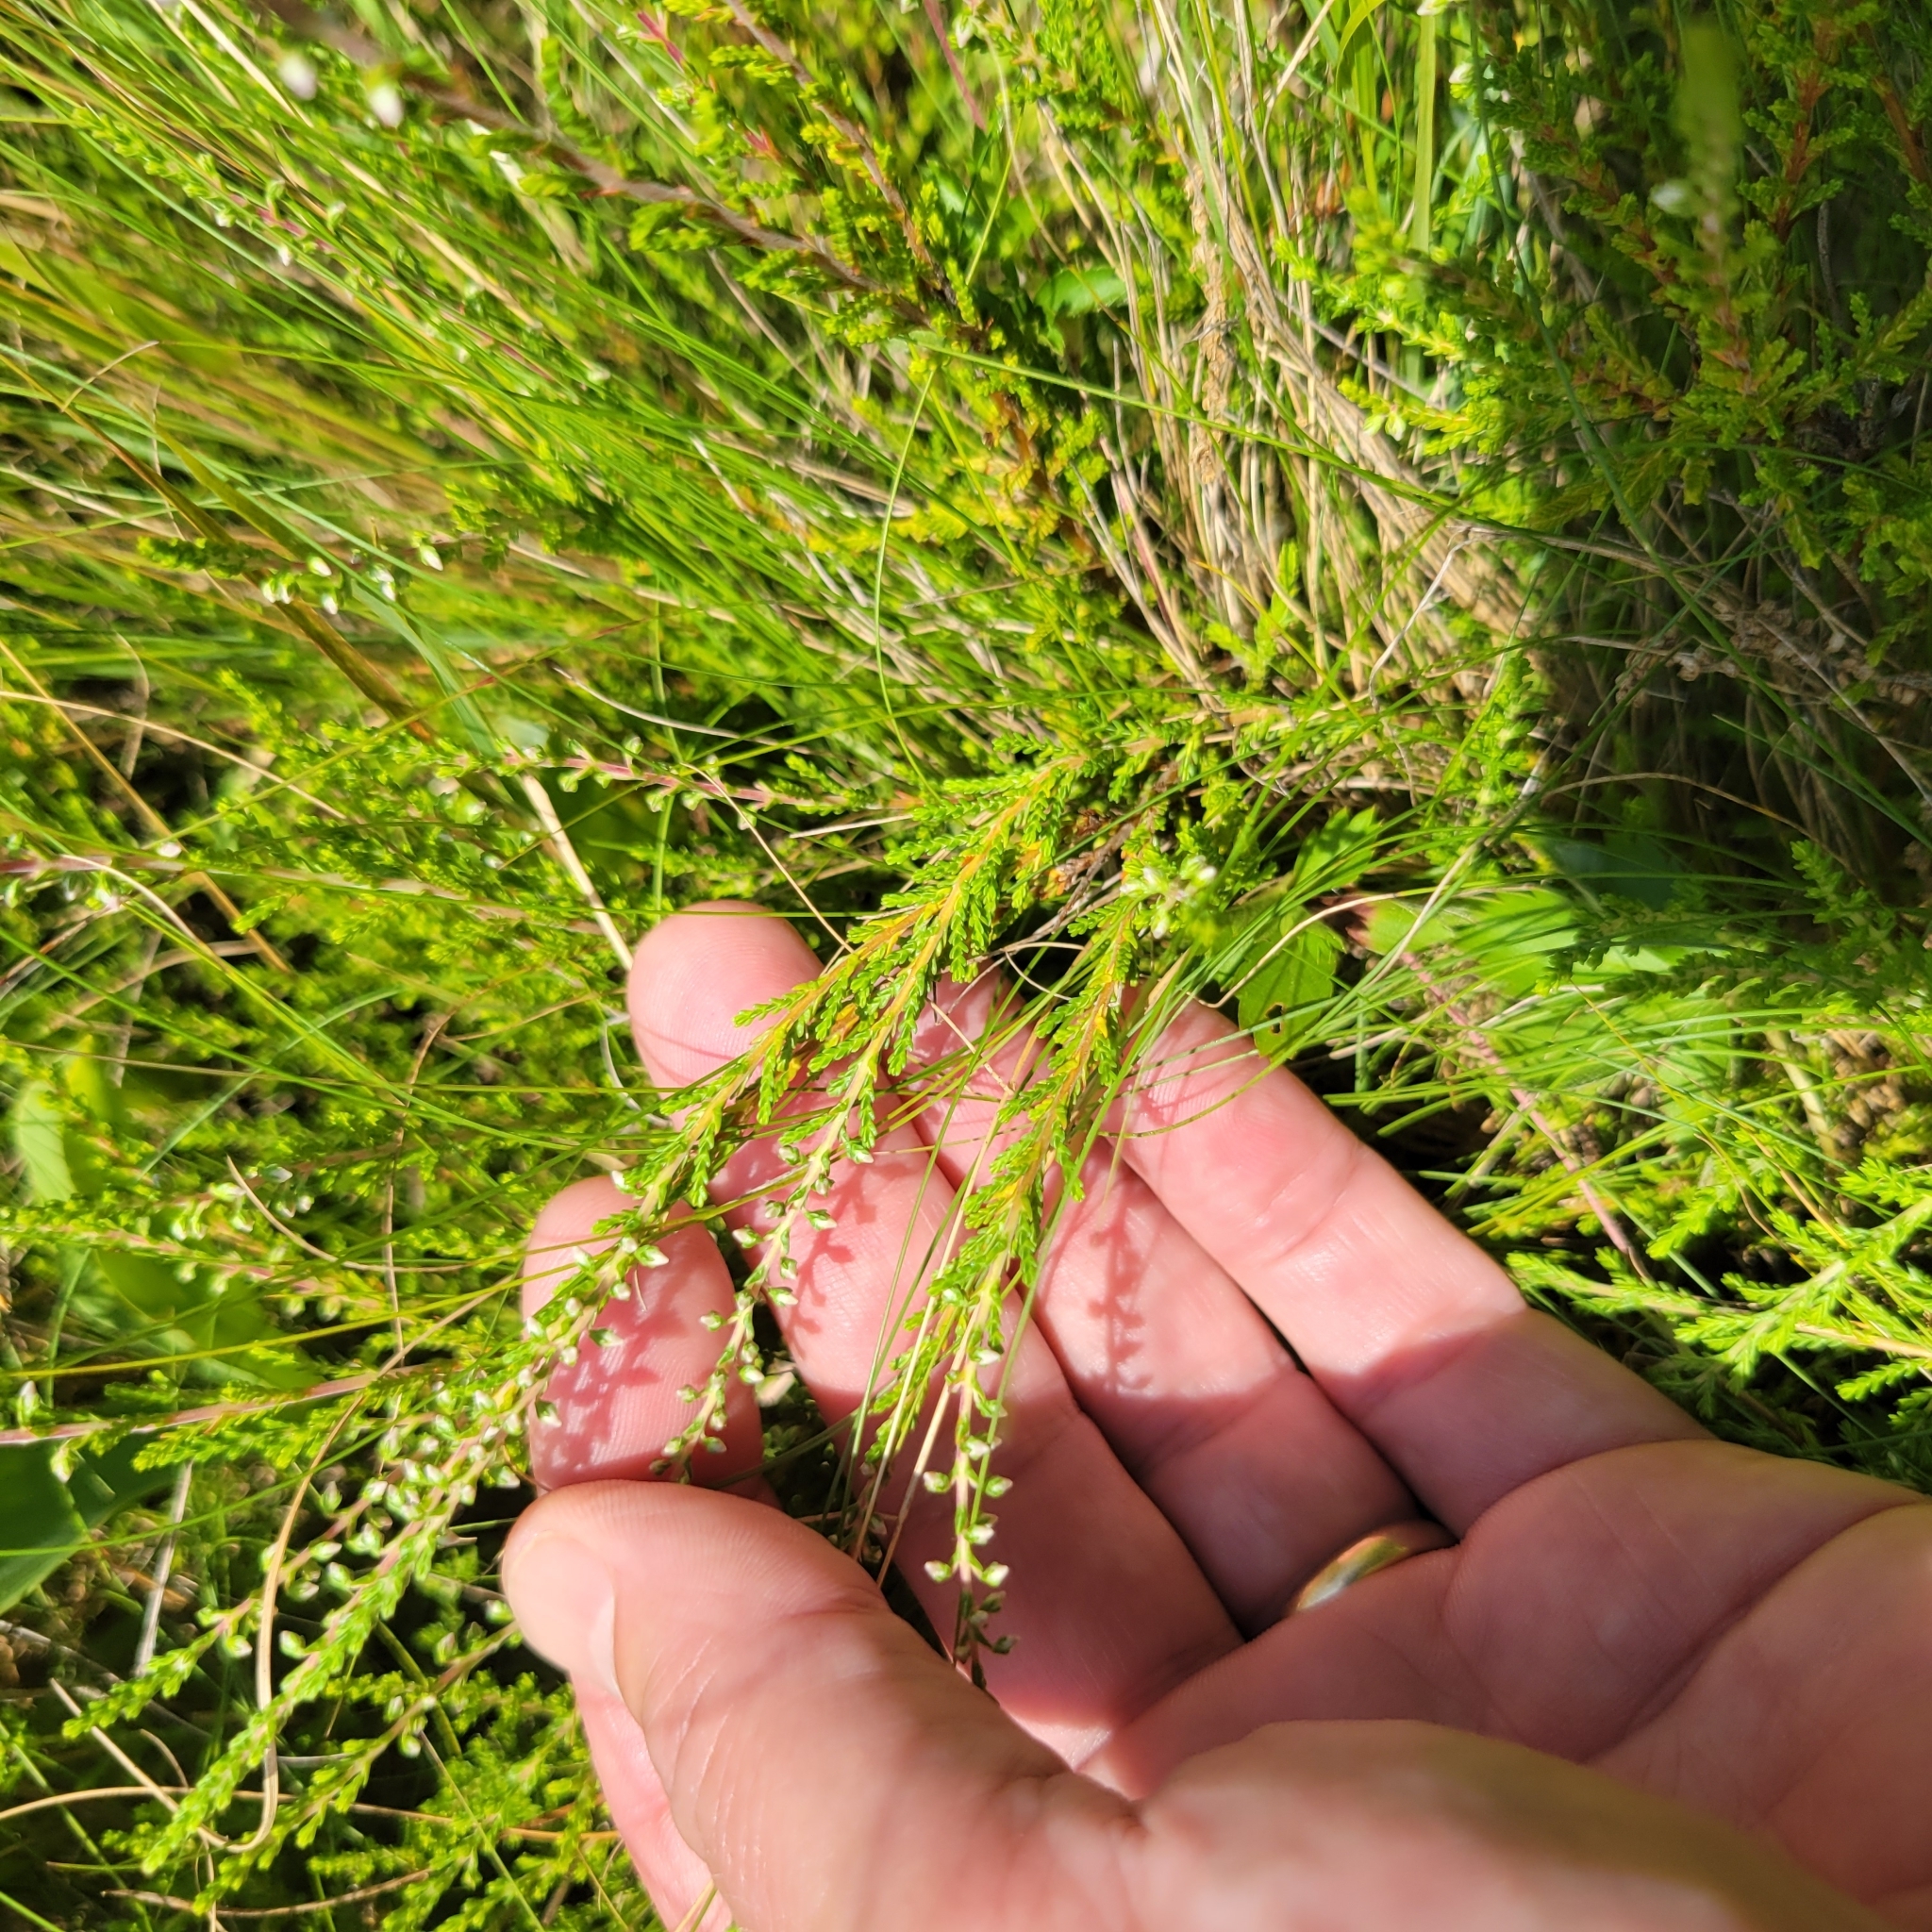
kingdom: Plantae
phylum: Tracheophyta
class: Magnoliopsida
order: Ericales
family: Ericaceae
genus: Calluna
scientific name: Calluna vulgaris
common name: Heather
